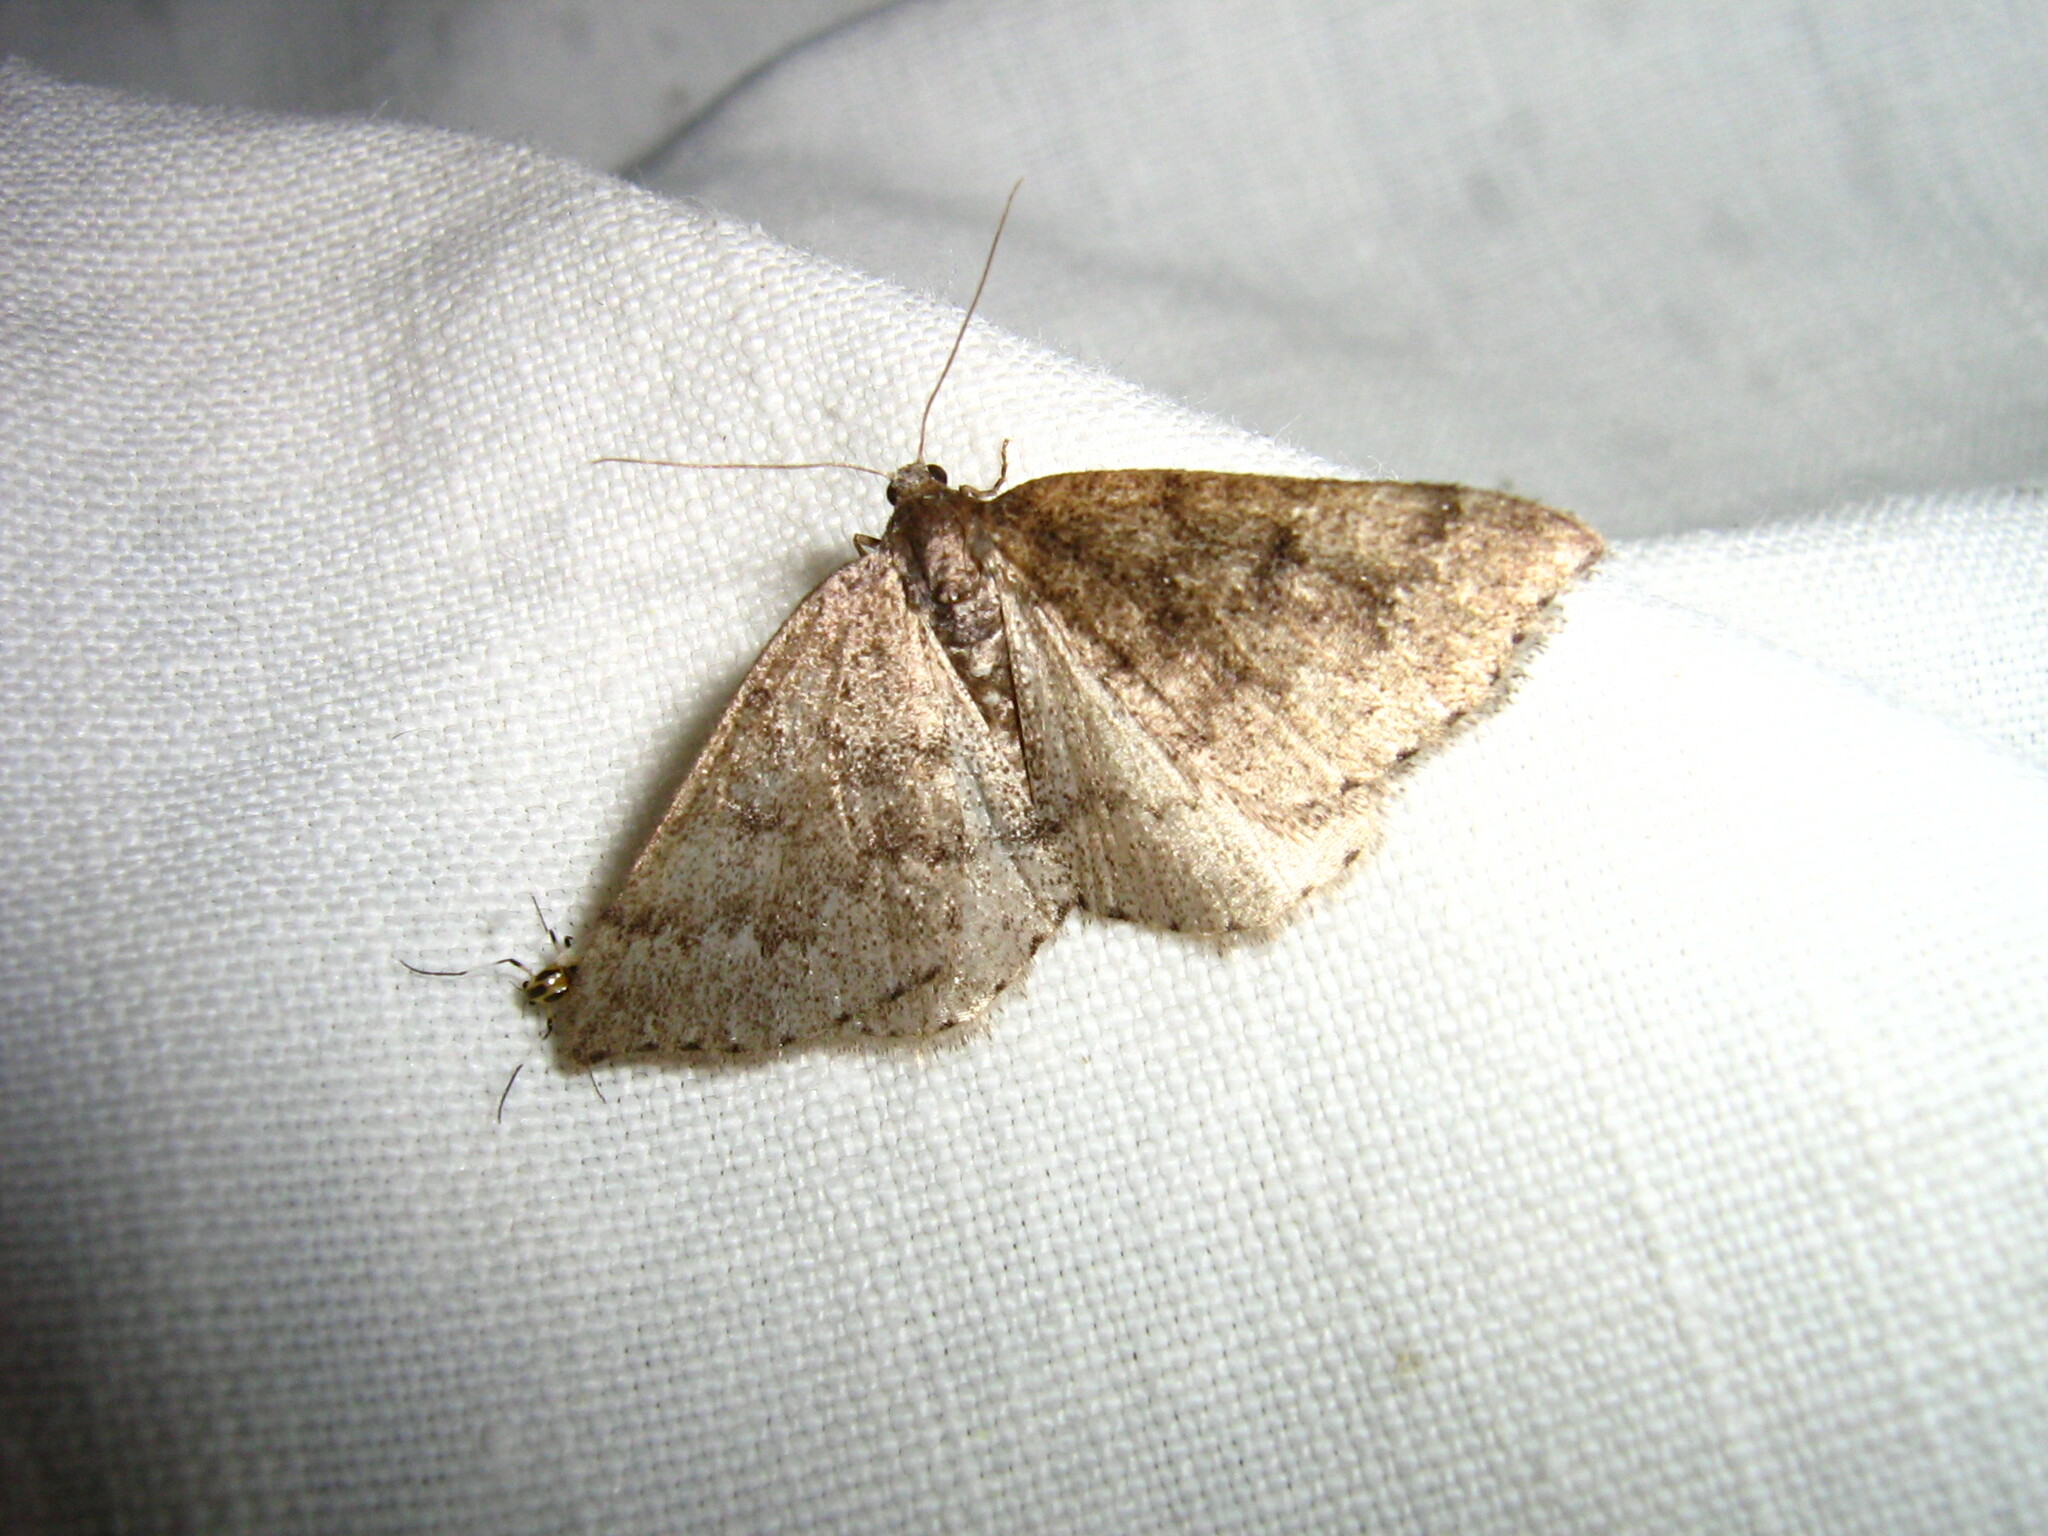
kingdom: Animalia
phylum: Arthropoda
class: Insecta
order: Lepidoptera
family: Geometridae
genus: Aleucis
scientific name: Aleucis distinctata
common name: Sloe carpet
